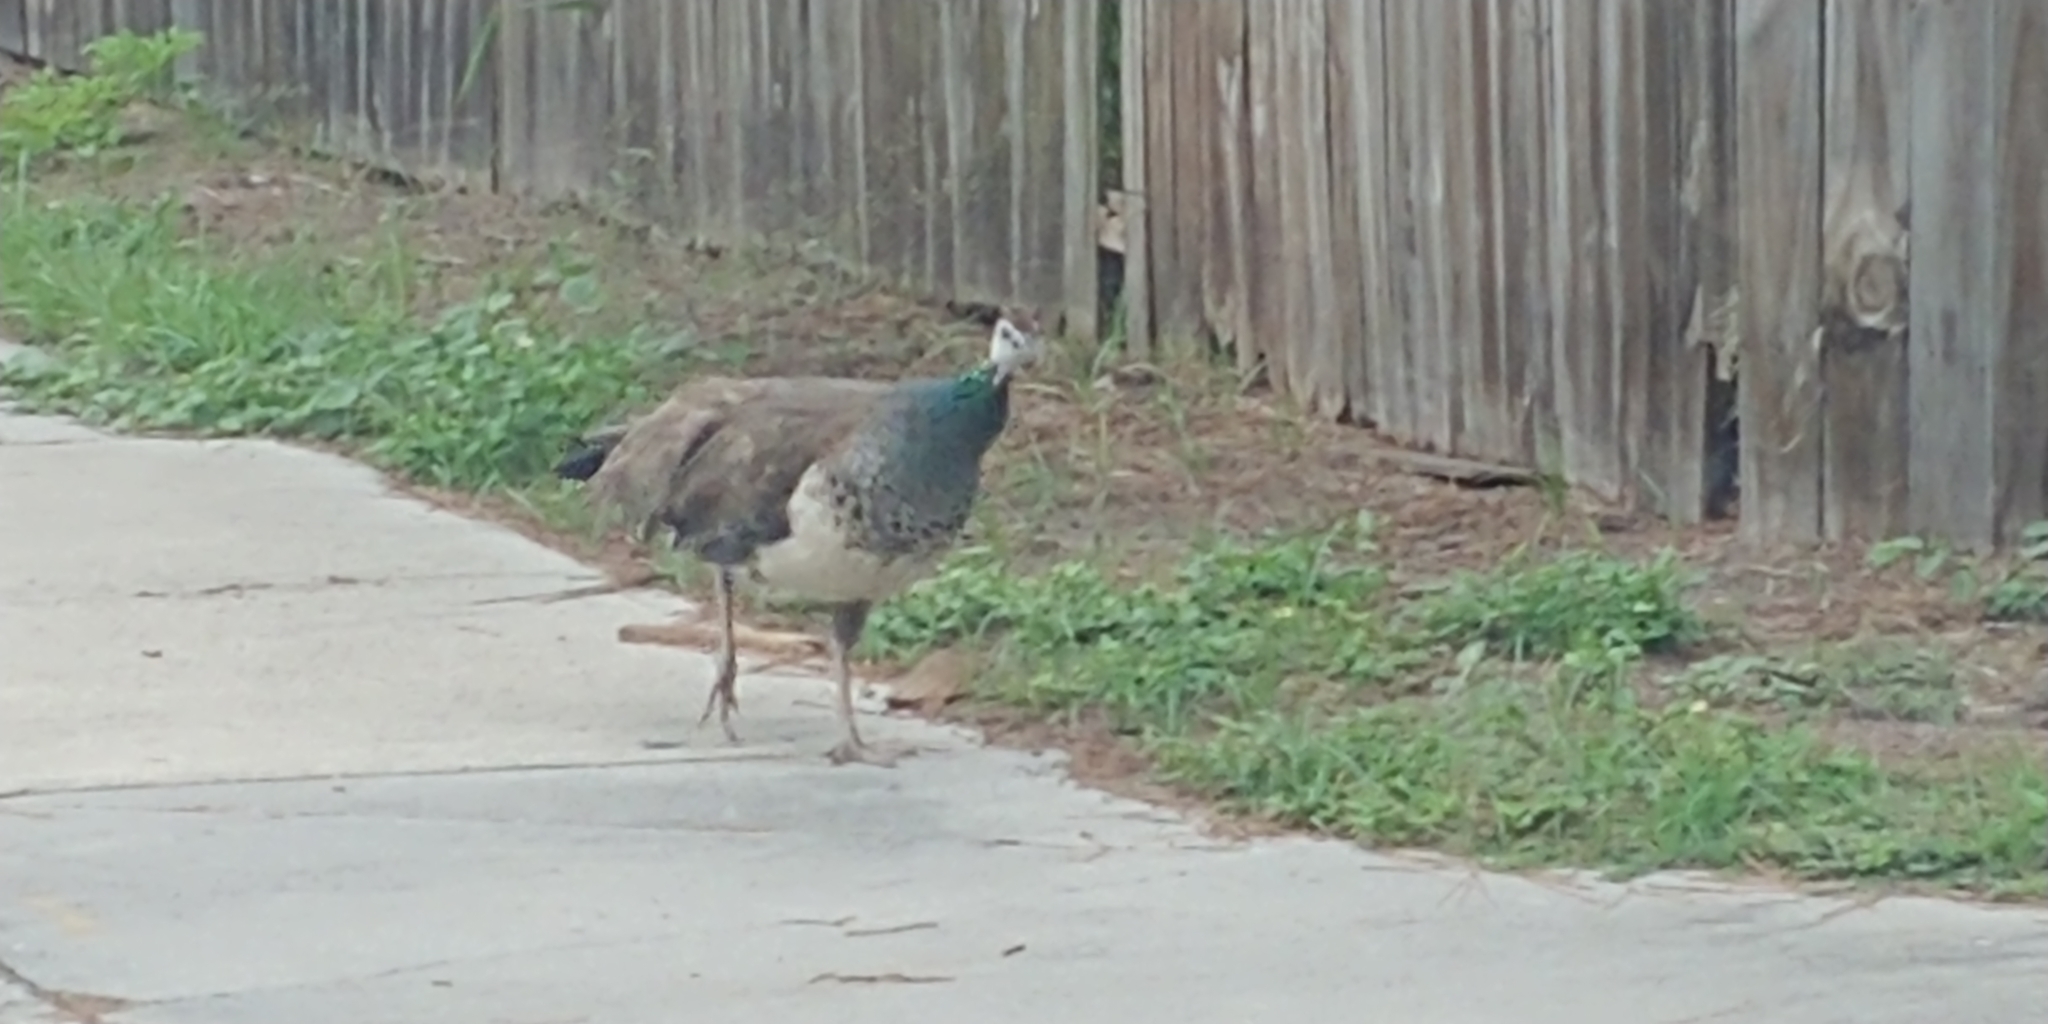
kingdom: Animalia
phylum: Chordata
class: Aves
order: Galliformes
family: Phasianidae
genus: Pavo
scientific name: Pavo cristatus
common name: Indian peafowl
